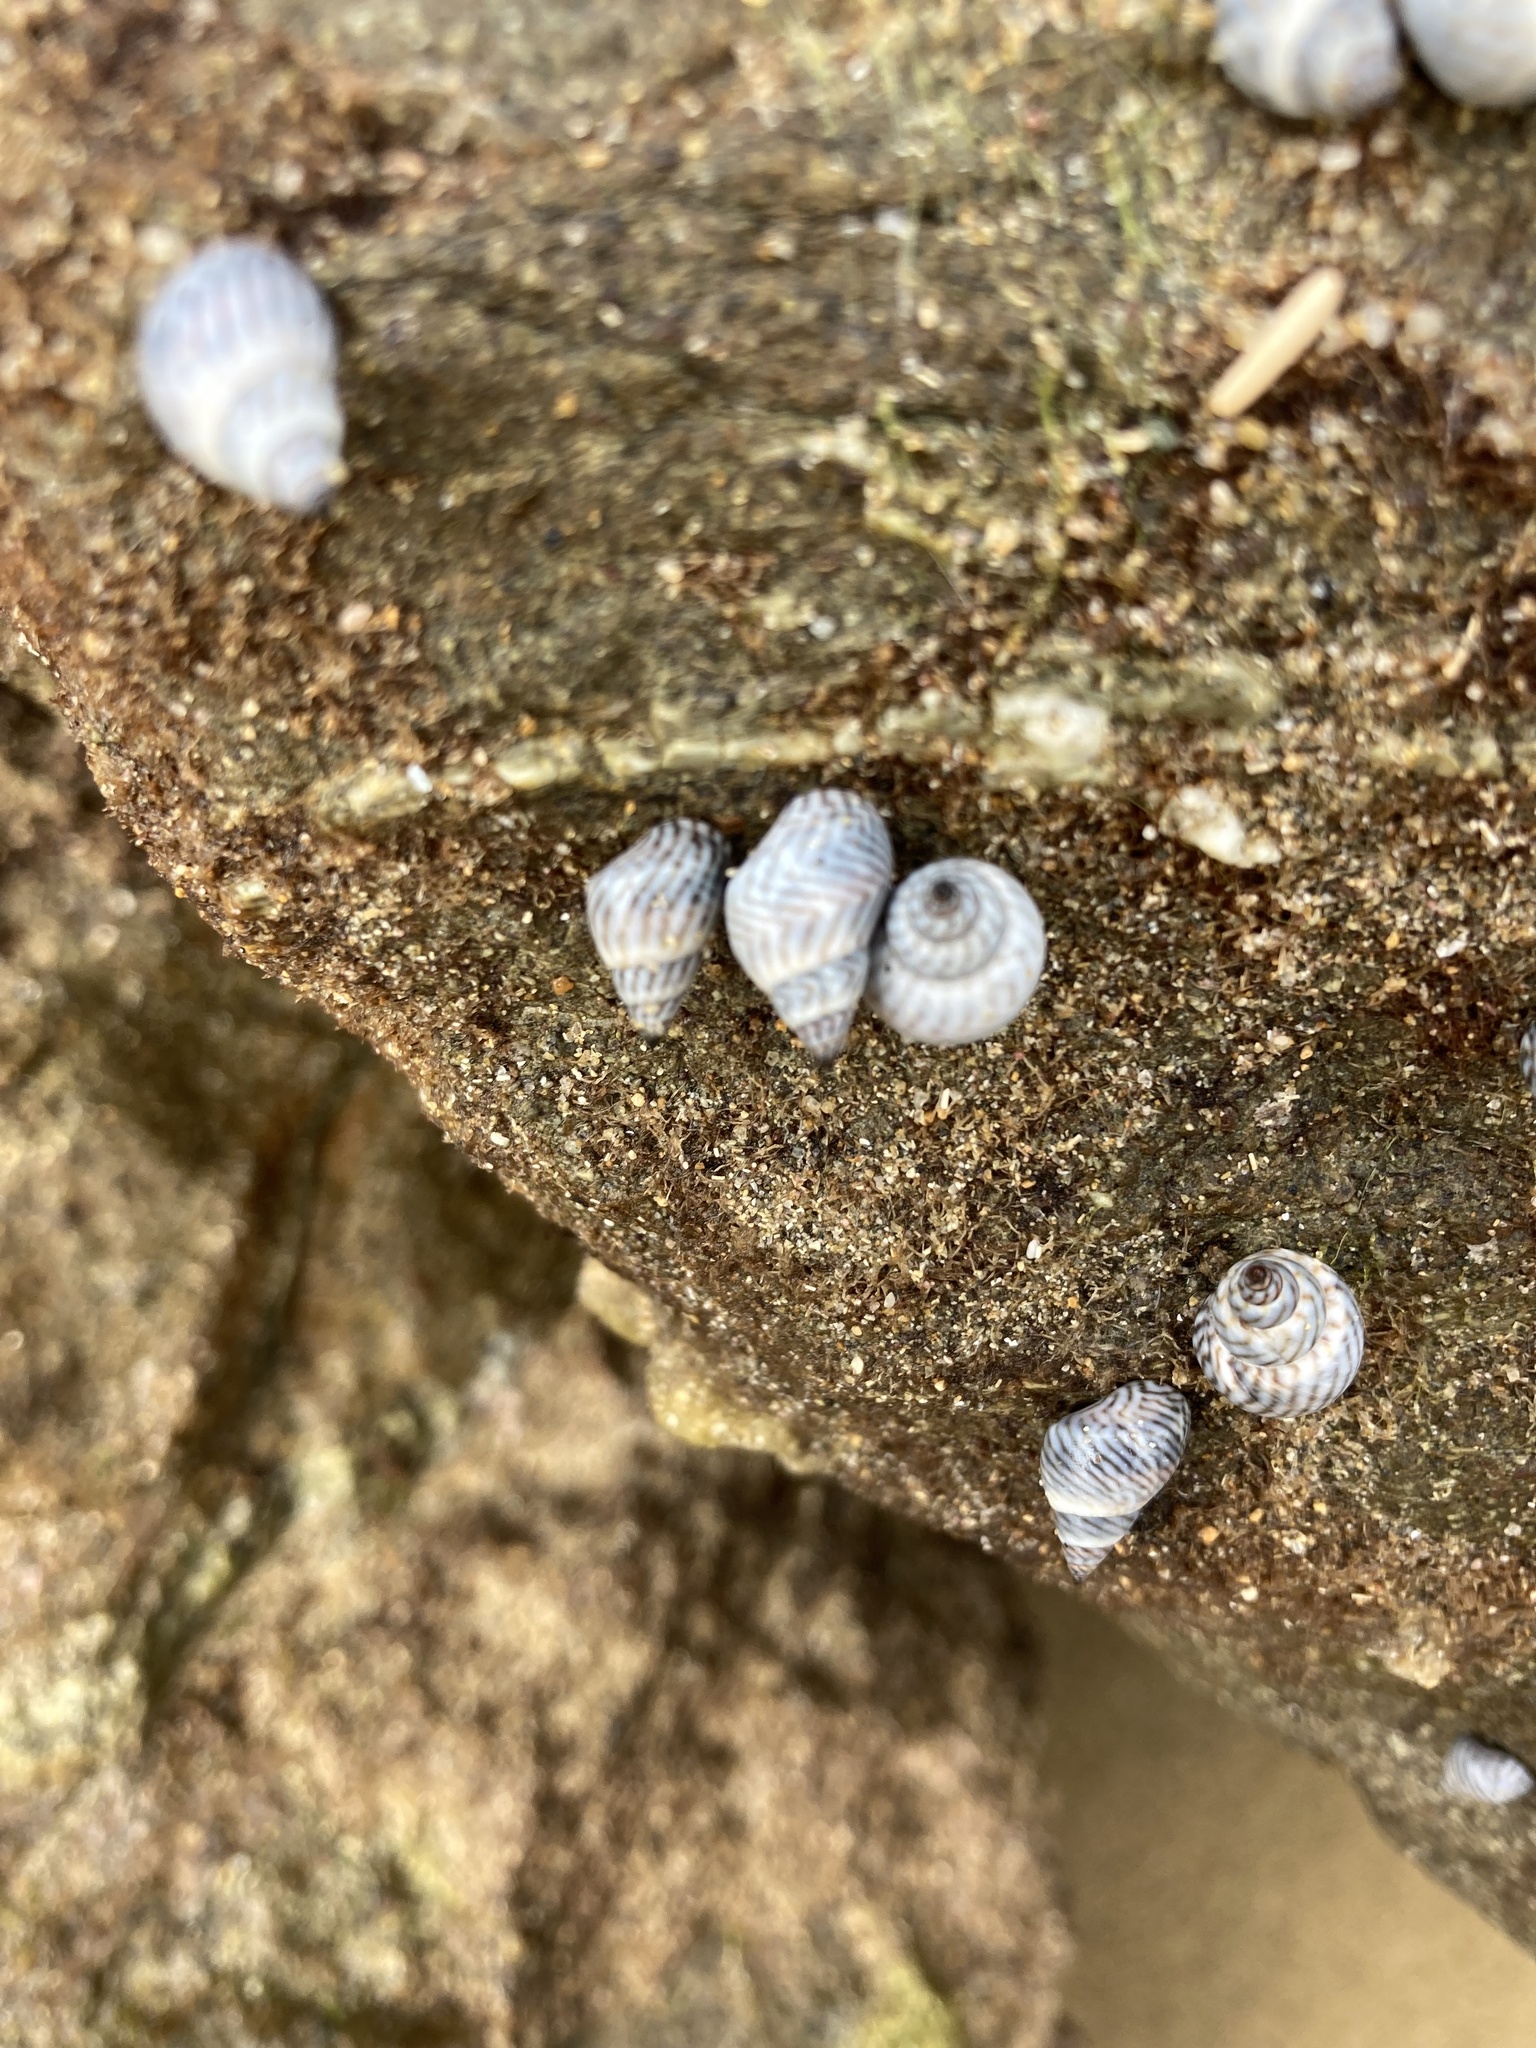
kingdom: Animalia
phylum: Mollusca
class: Gastropoda
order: Littorinimorpha
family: Littorinidae
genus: Echinolittorina
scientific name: Echinolittorina ziczac
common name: Zebra periwinkle
